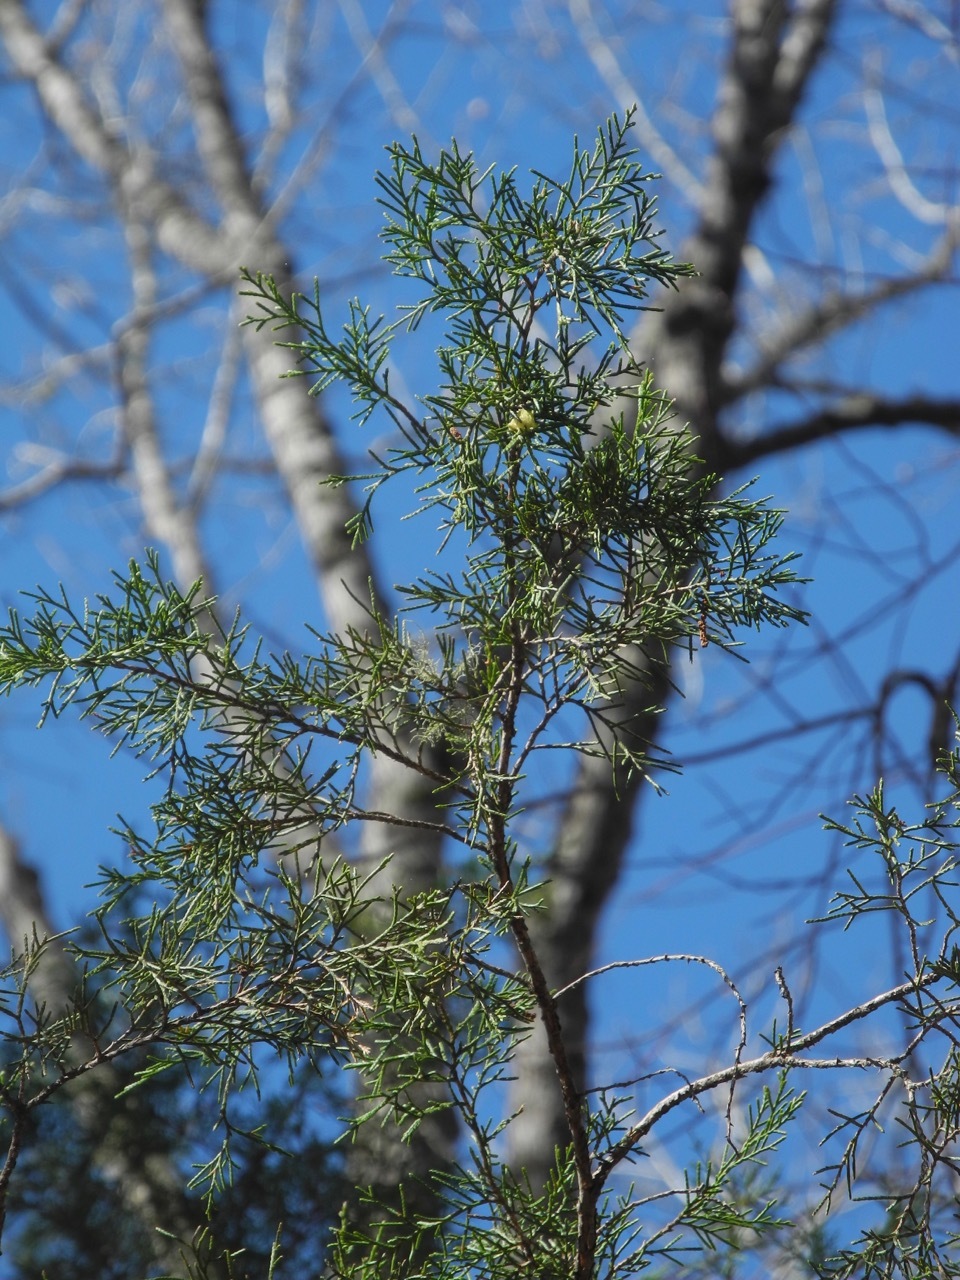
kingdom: Plantae
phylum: Tracheophyta
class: Pinopsida
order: Pinales
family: Cupressaceae
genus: Juniperus
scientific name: Juniperus virginiana
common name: Red juniper
